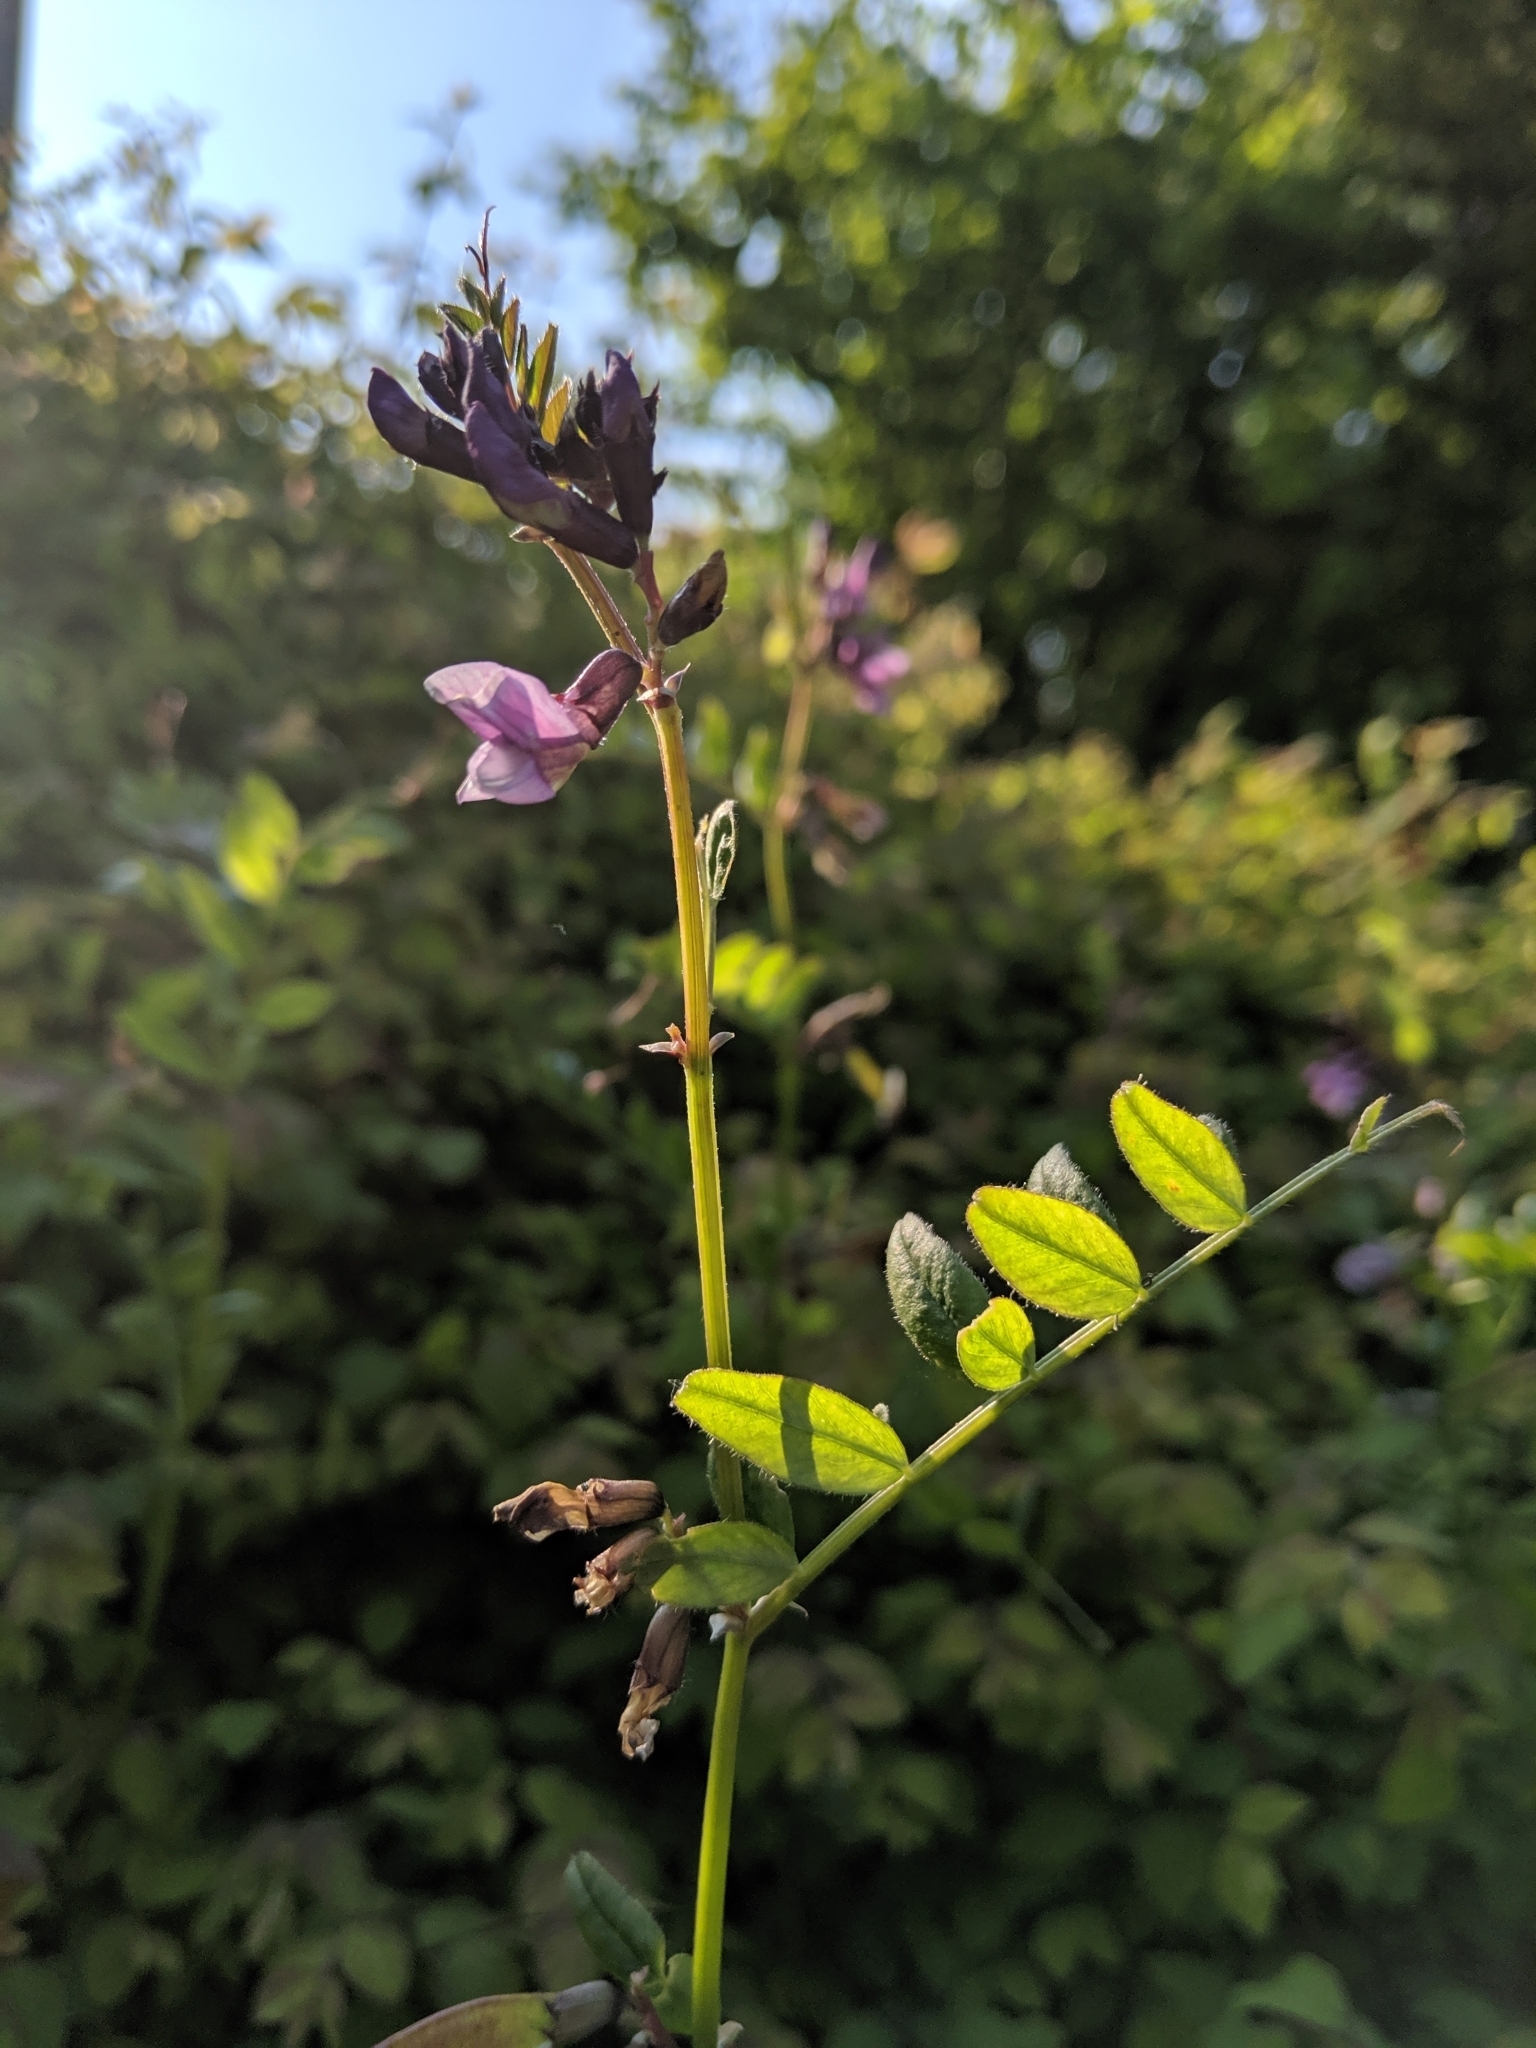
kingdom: Plantae
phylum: Tracheophyta
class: Magnoliopsida
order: Fabales
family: Fabaceae
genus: Vicia
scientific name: Vicia sepium
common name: Bush vetch
